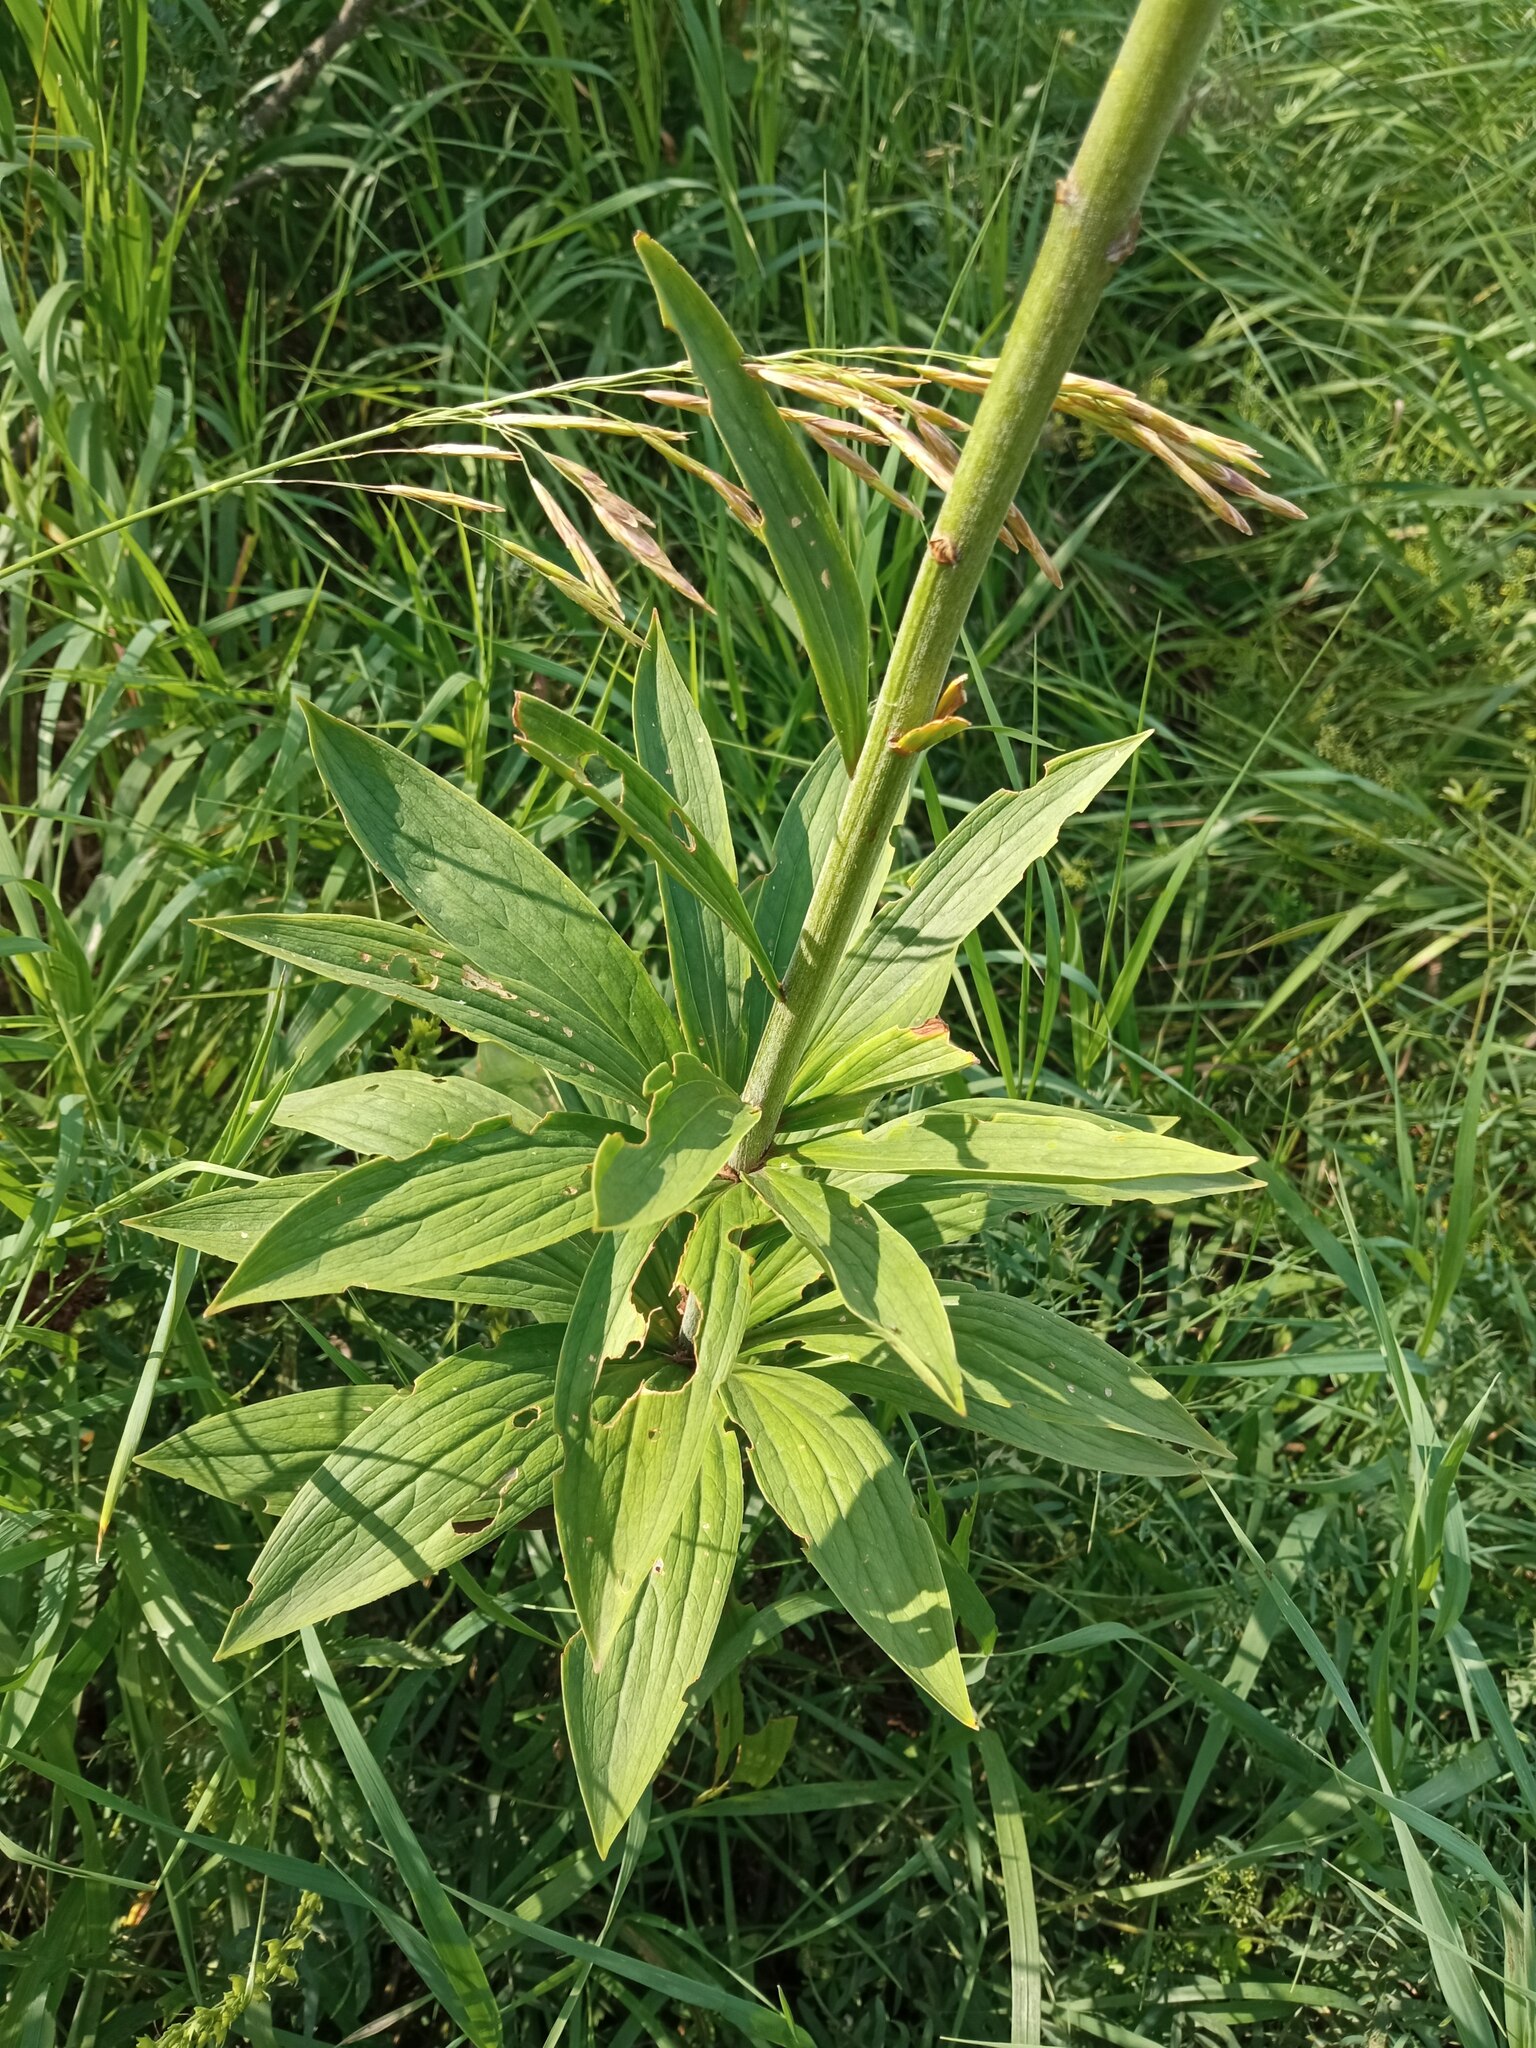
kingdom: Plantae
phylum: Tracheophyta
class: Liliopsida
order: Liliales
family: Liliaceae
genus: Lilium
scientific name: Lilium martagon
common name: Martagon lily
